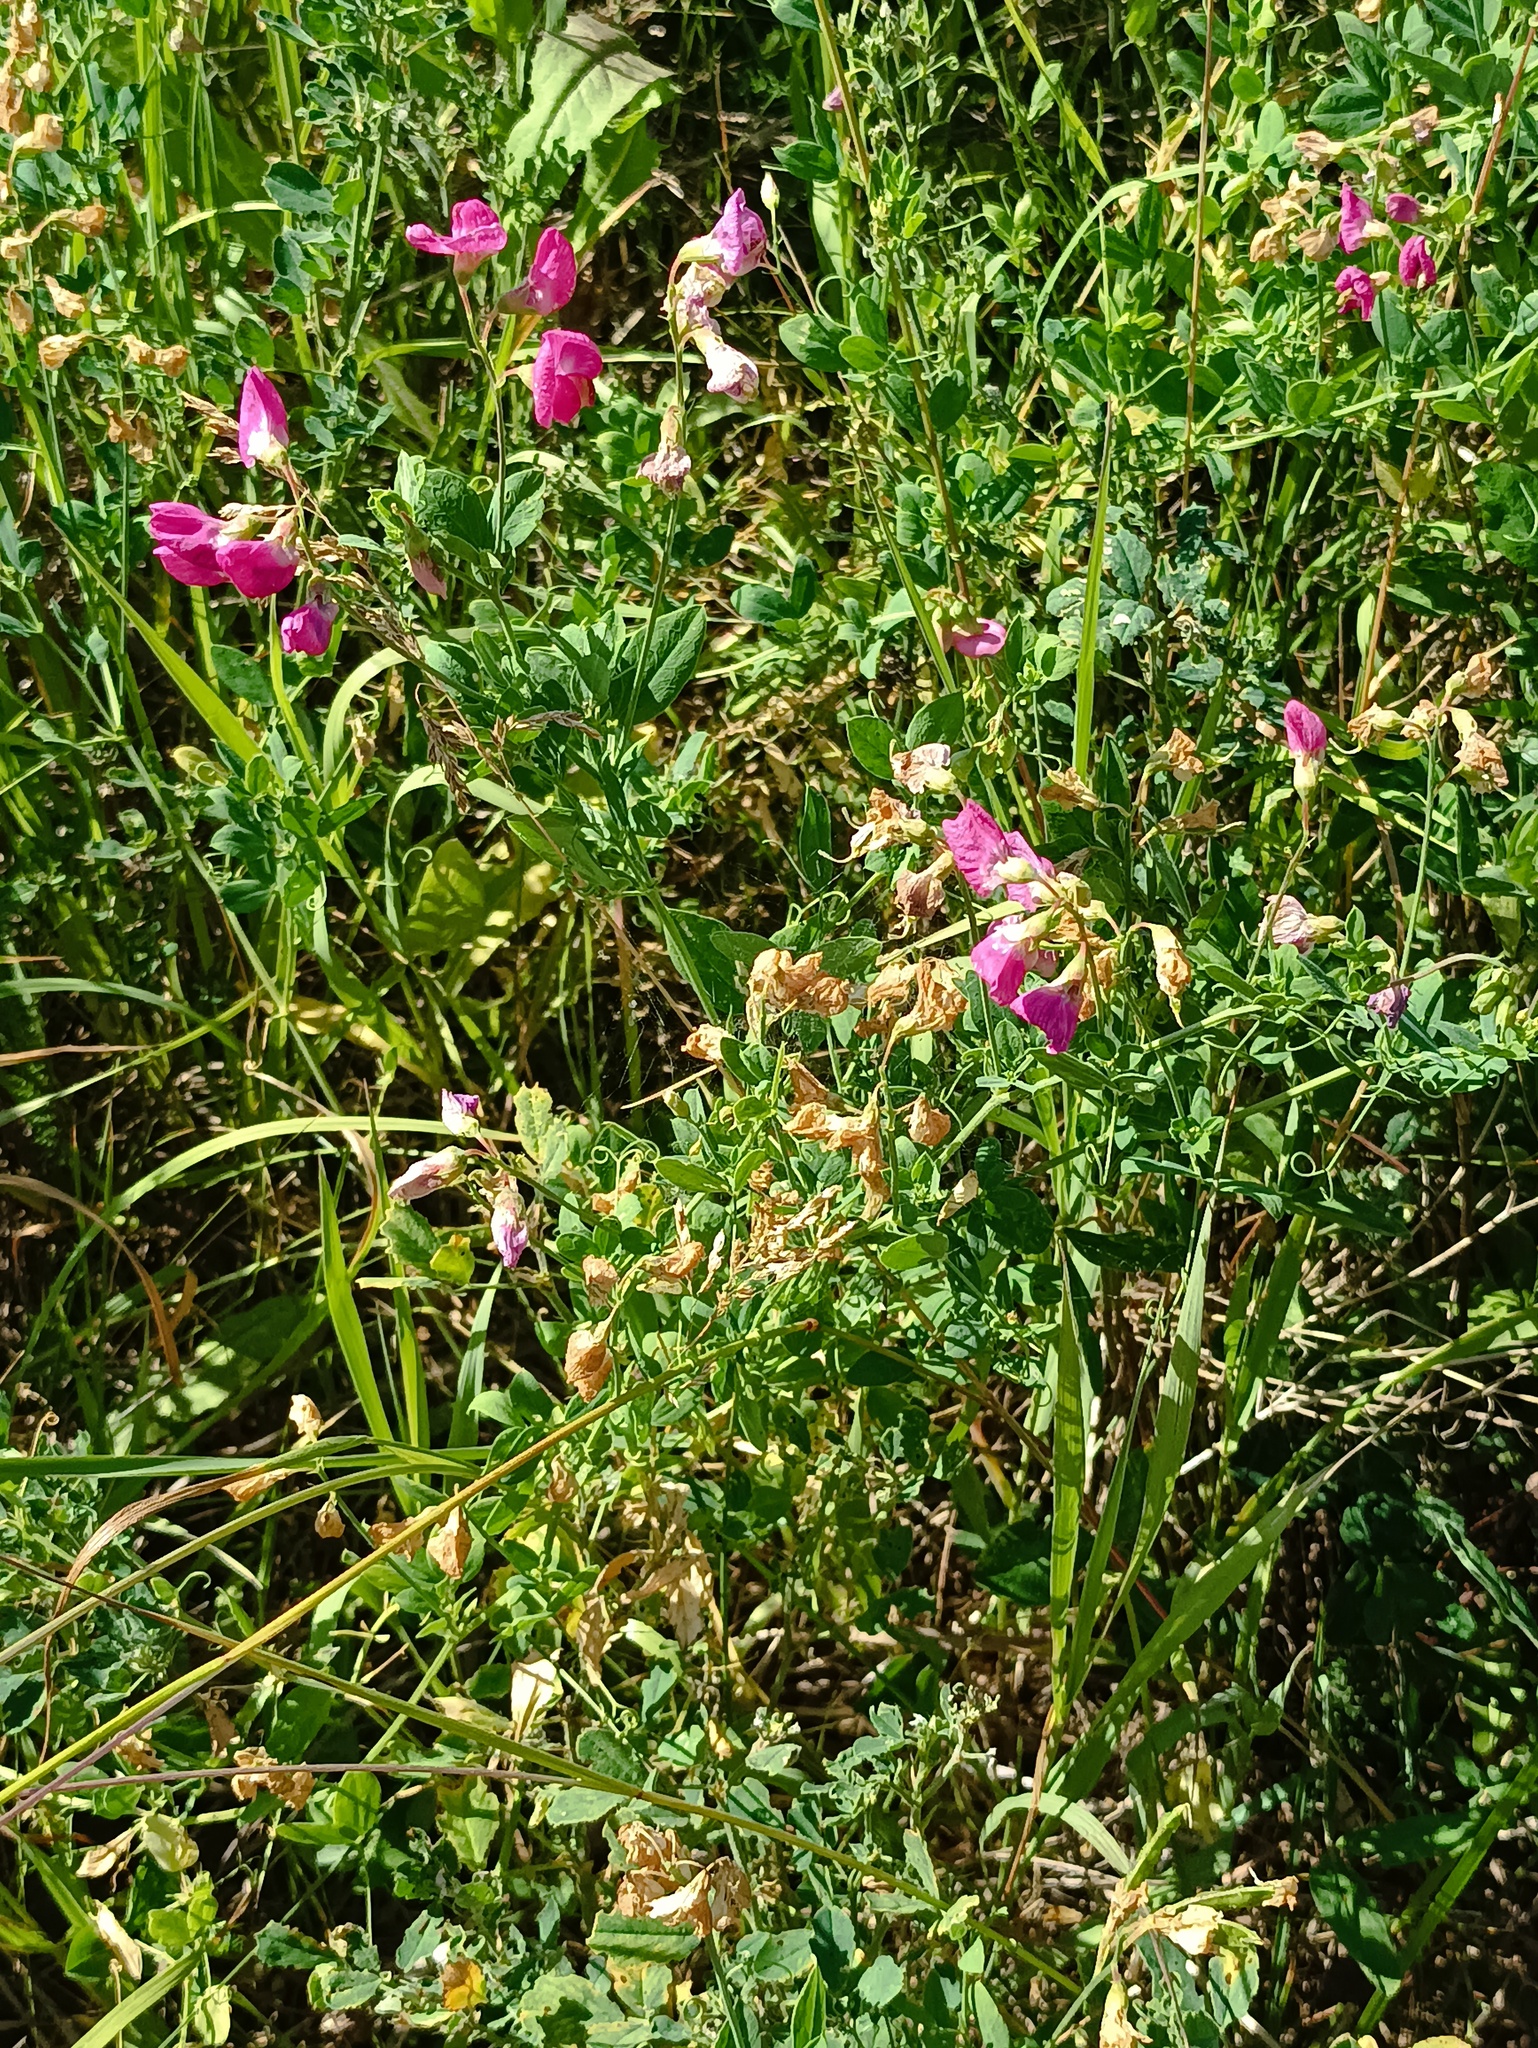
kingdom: Plantae
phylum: Tracheophyta
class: Magnoliopsida
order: Fabales
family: Fabaceae
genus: Lathyrus
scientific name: Lathyrus tuberosus
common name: Tuberous pea
